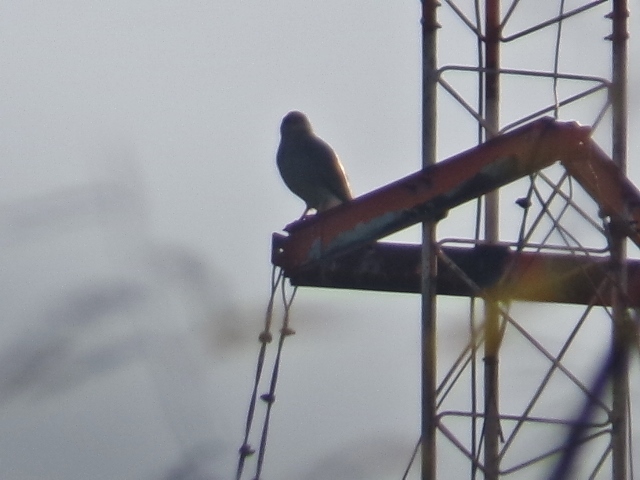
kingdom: Animalia
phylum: Chordata
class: Aves
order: Accipitriformes
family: Accipitridae
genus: Buteo
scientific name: Buteo nitidus
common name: Grey-lined hawk
